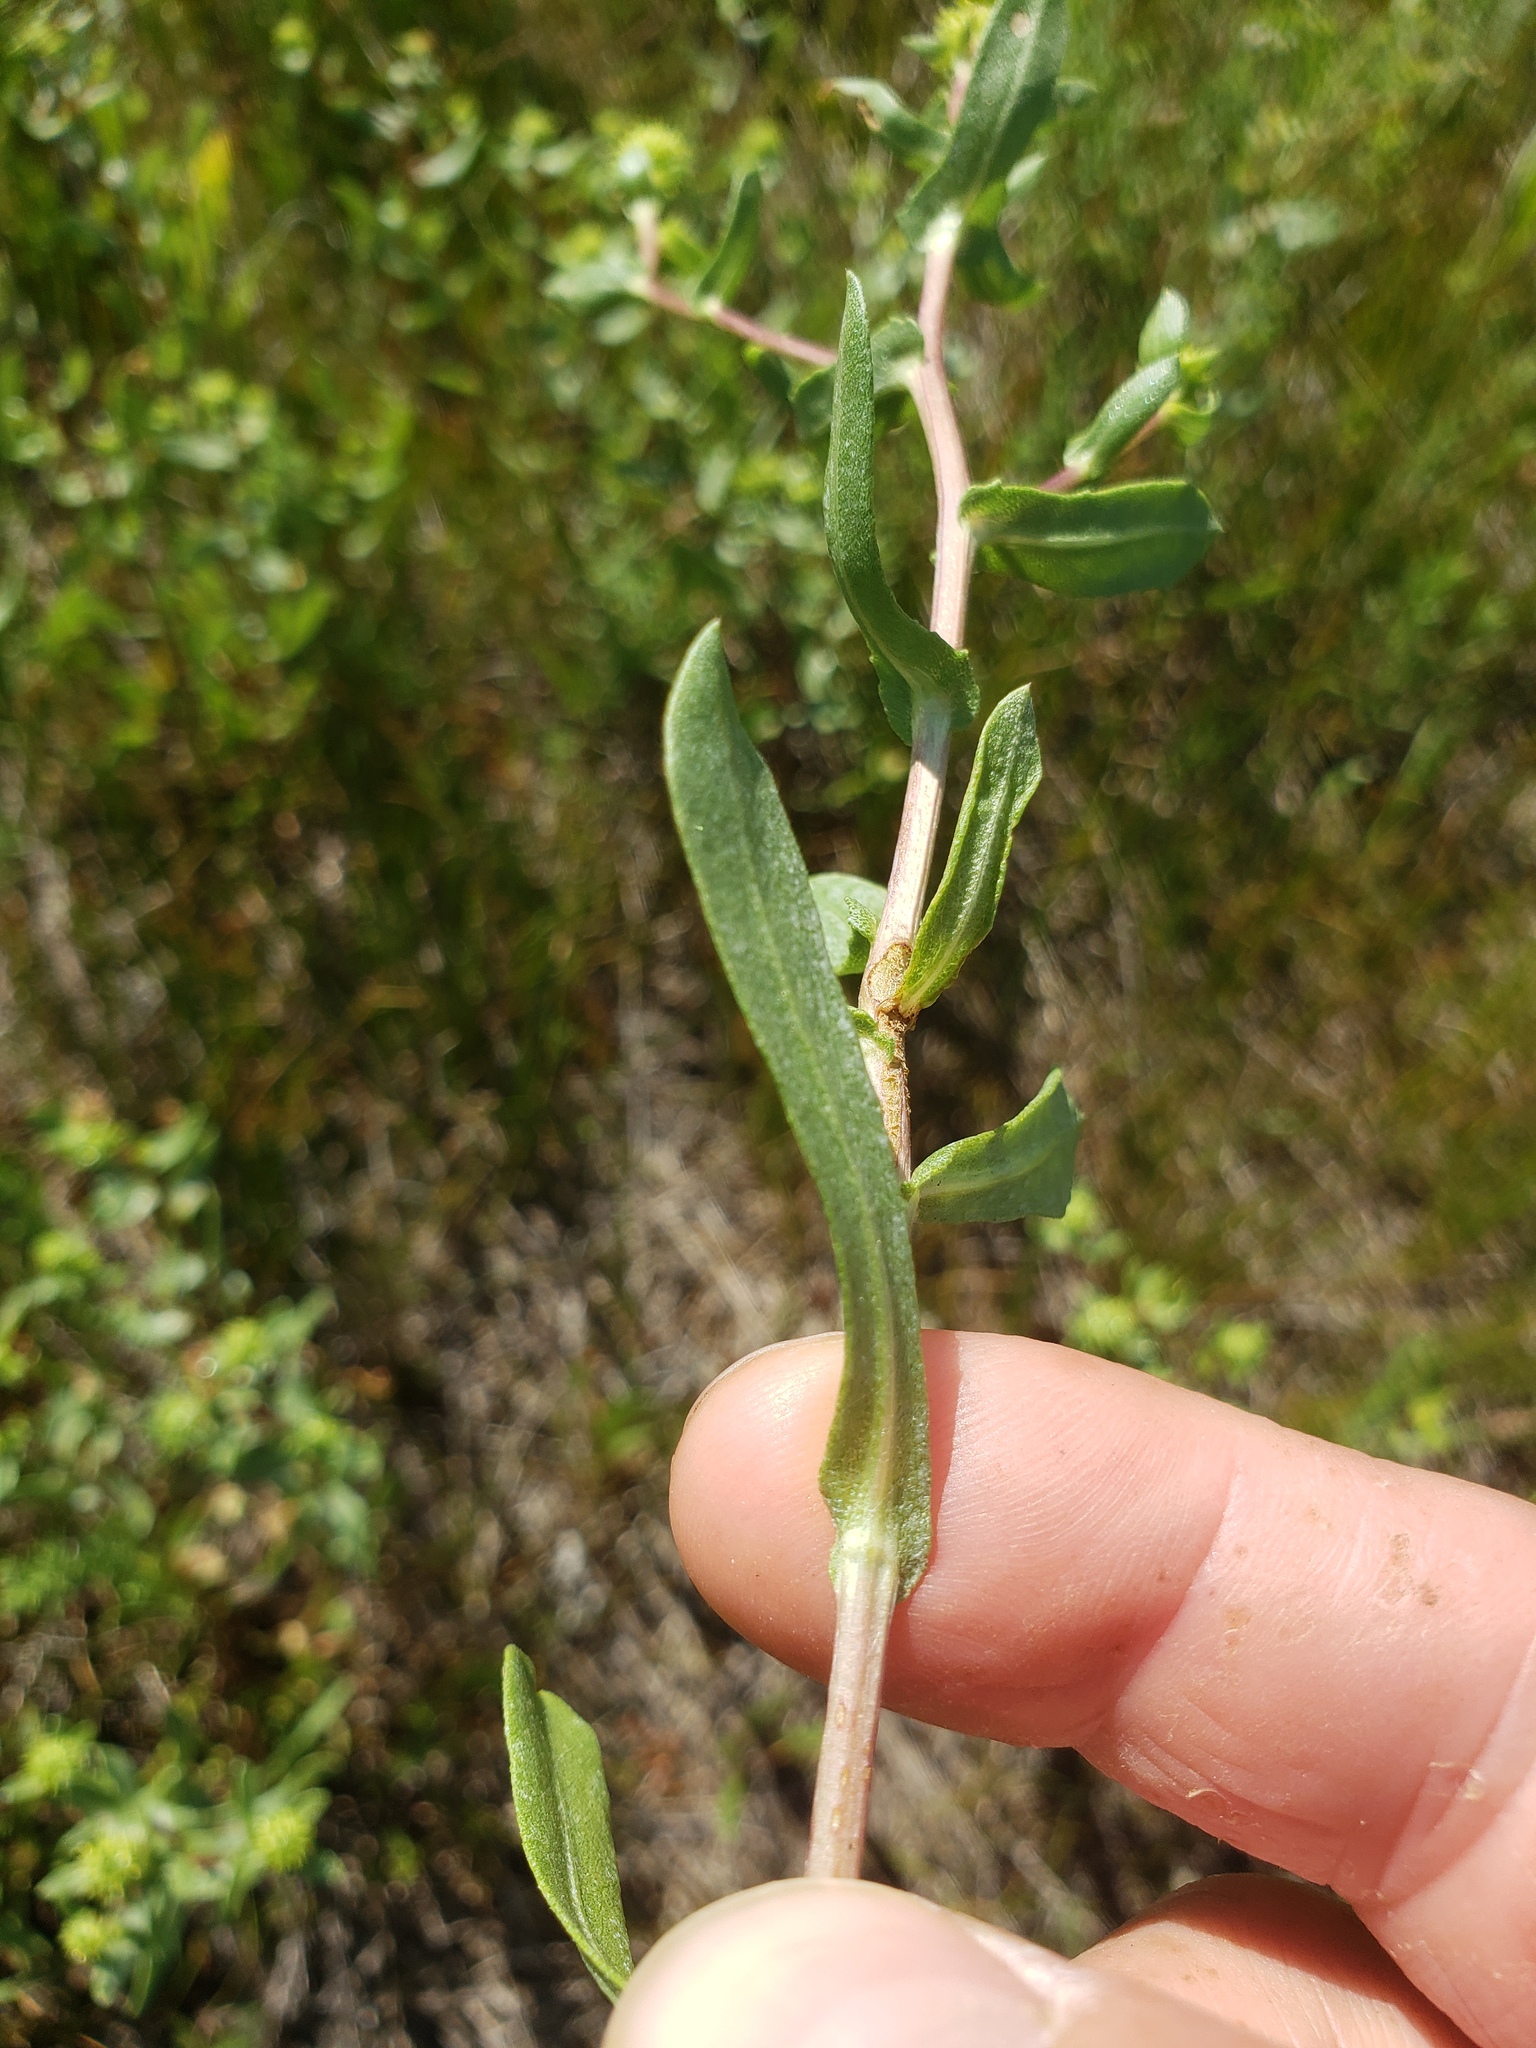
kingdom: Plantae
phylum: Tracheophyta
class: Magnoliopsida
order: Asterales
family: Asteraceae
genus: Grindelia
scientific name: Grindelia squarrosa
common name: Curly-cup gumweed
